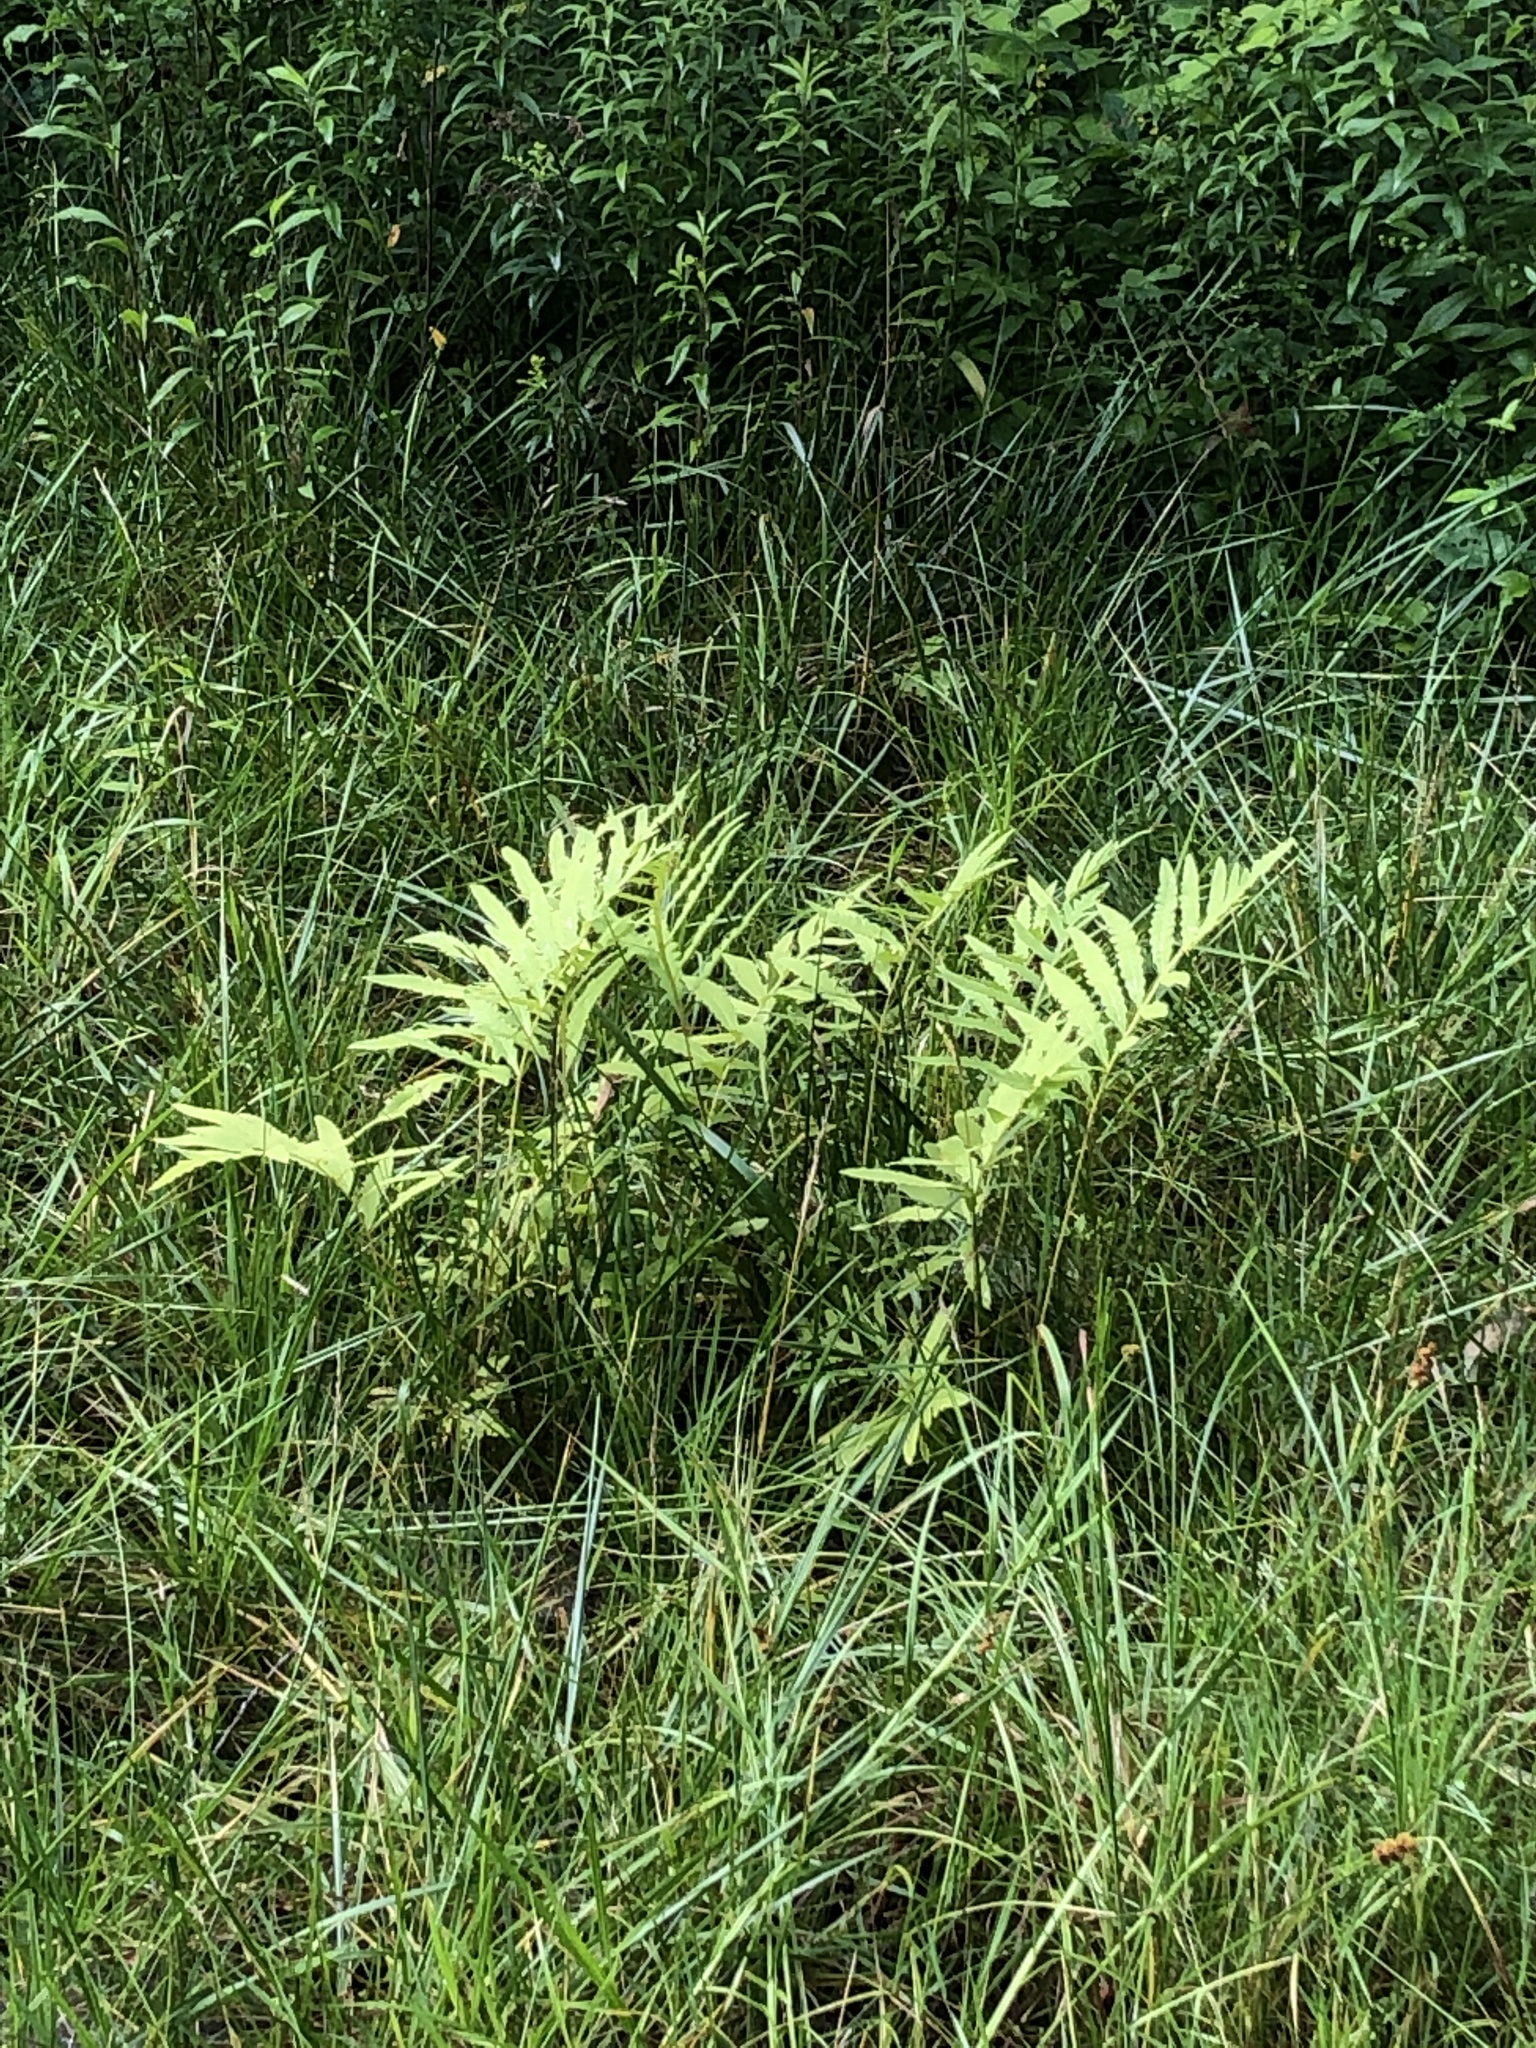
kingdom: Plantae
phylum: Tracheophyta
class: Polypodiopsida
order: Polypodiales
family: Onocleaceae
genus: Onoclea
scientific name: Onoclea sensibilis
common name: Sensitive fern
